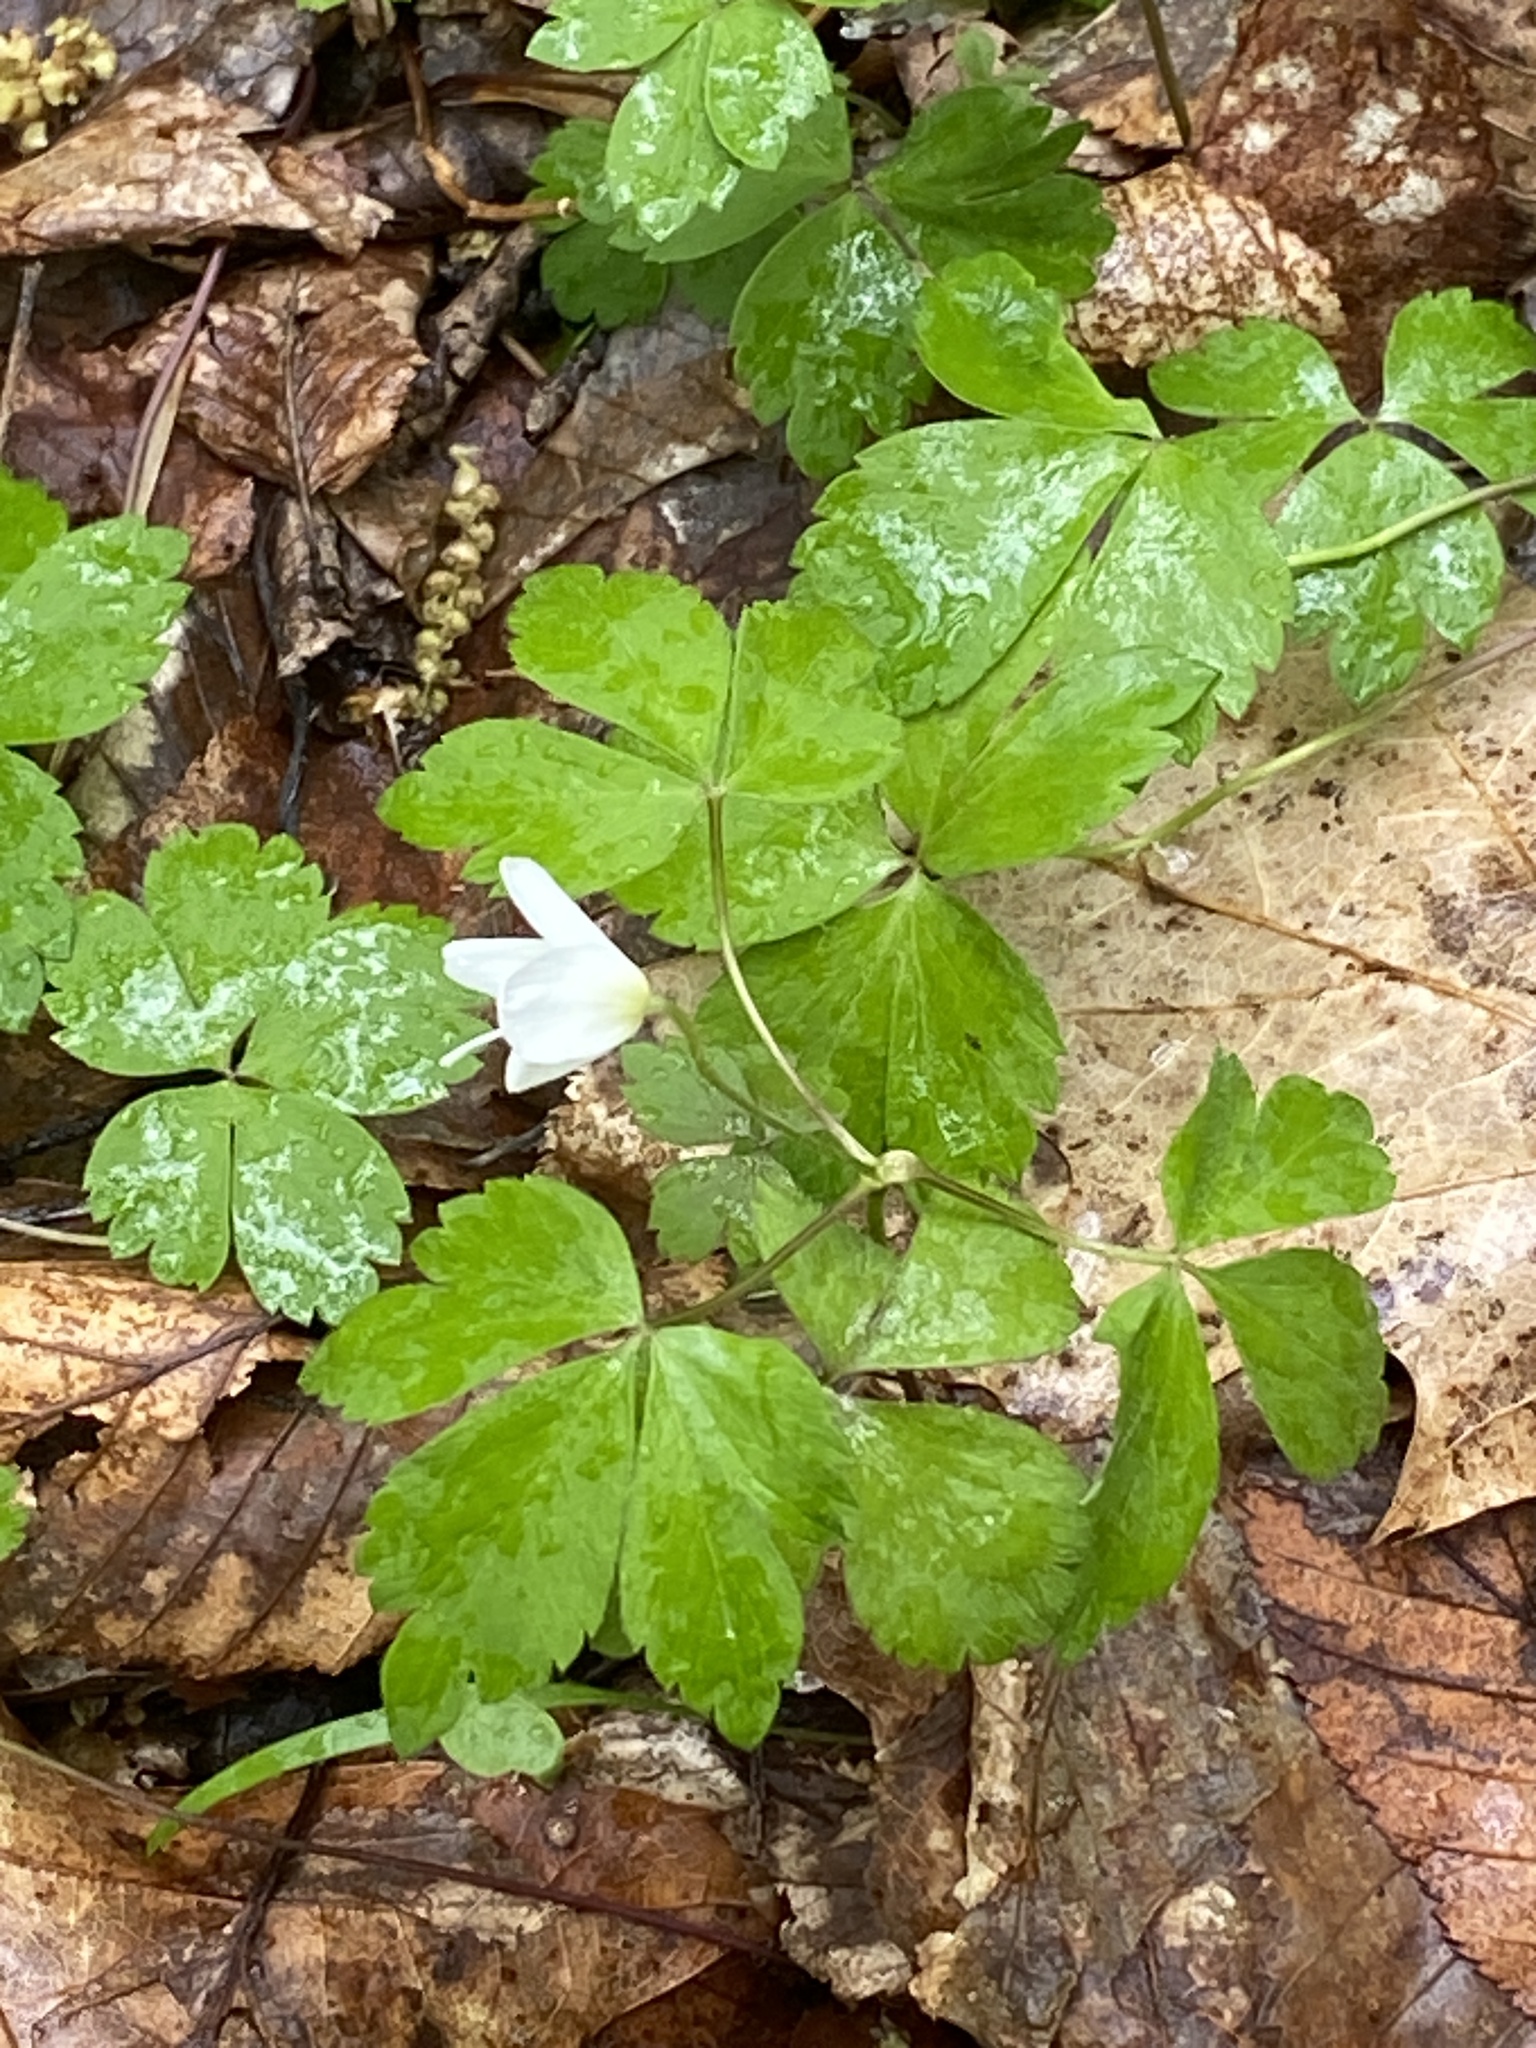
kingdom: Plantae
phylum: Tracheophyta
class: Magnoliopsida
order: Ranunculales
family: Ranunculaceae
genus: Anemone
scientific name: Anemone quinquefolia
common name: Wood anemone
